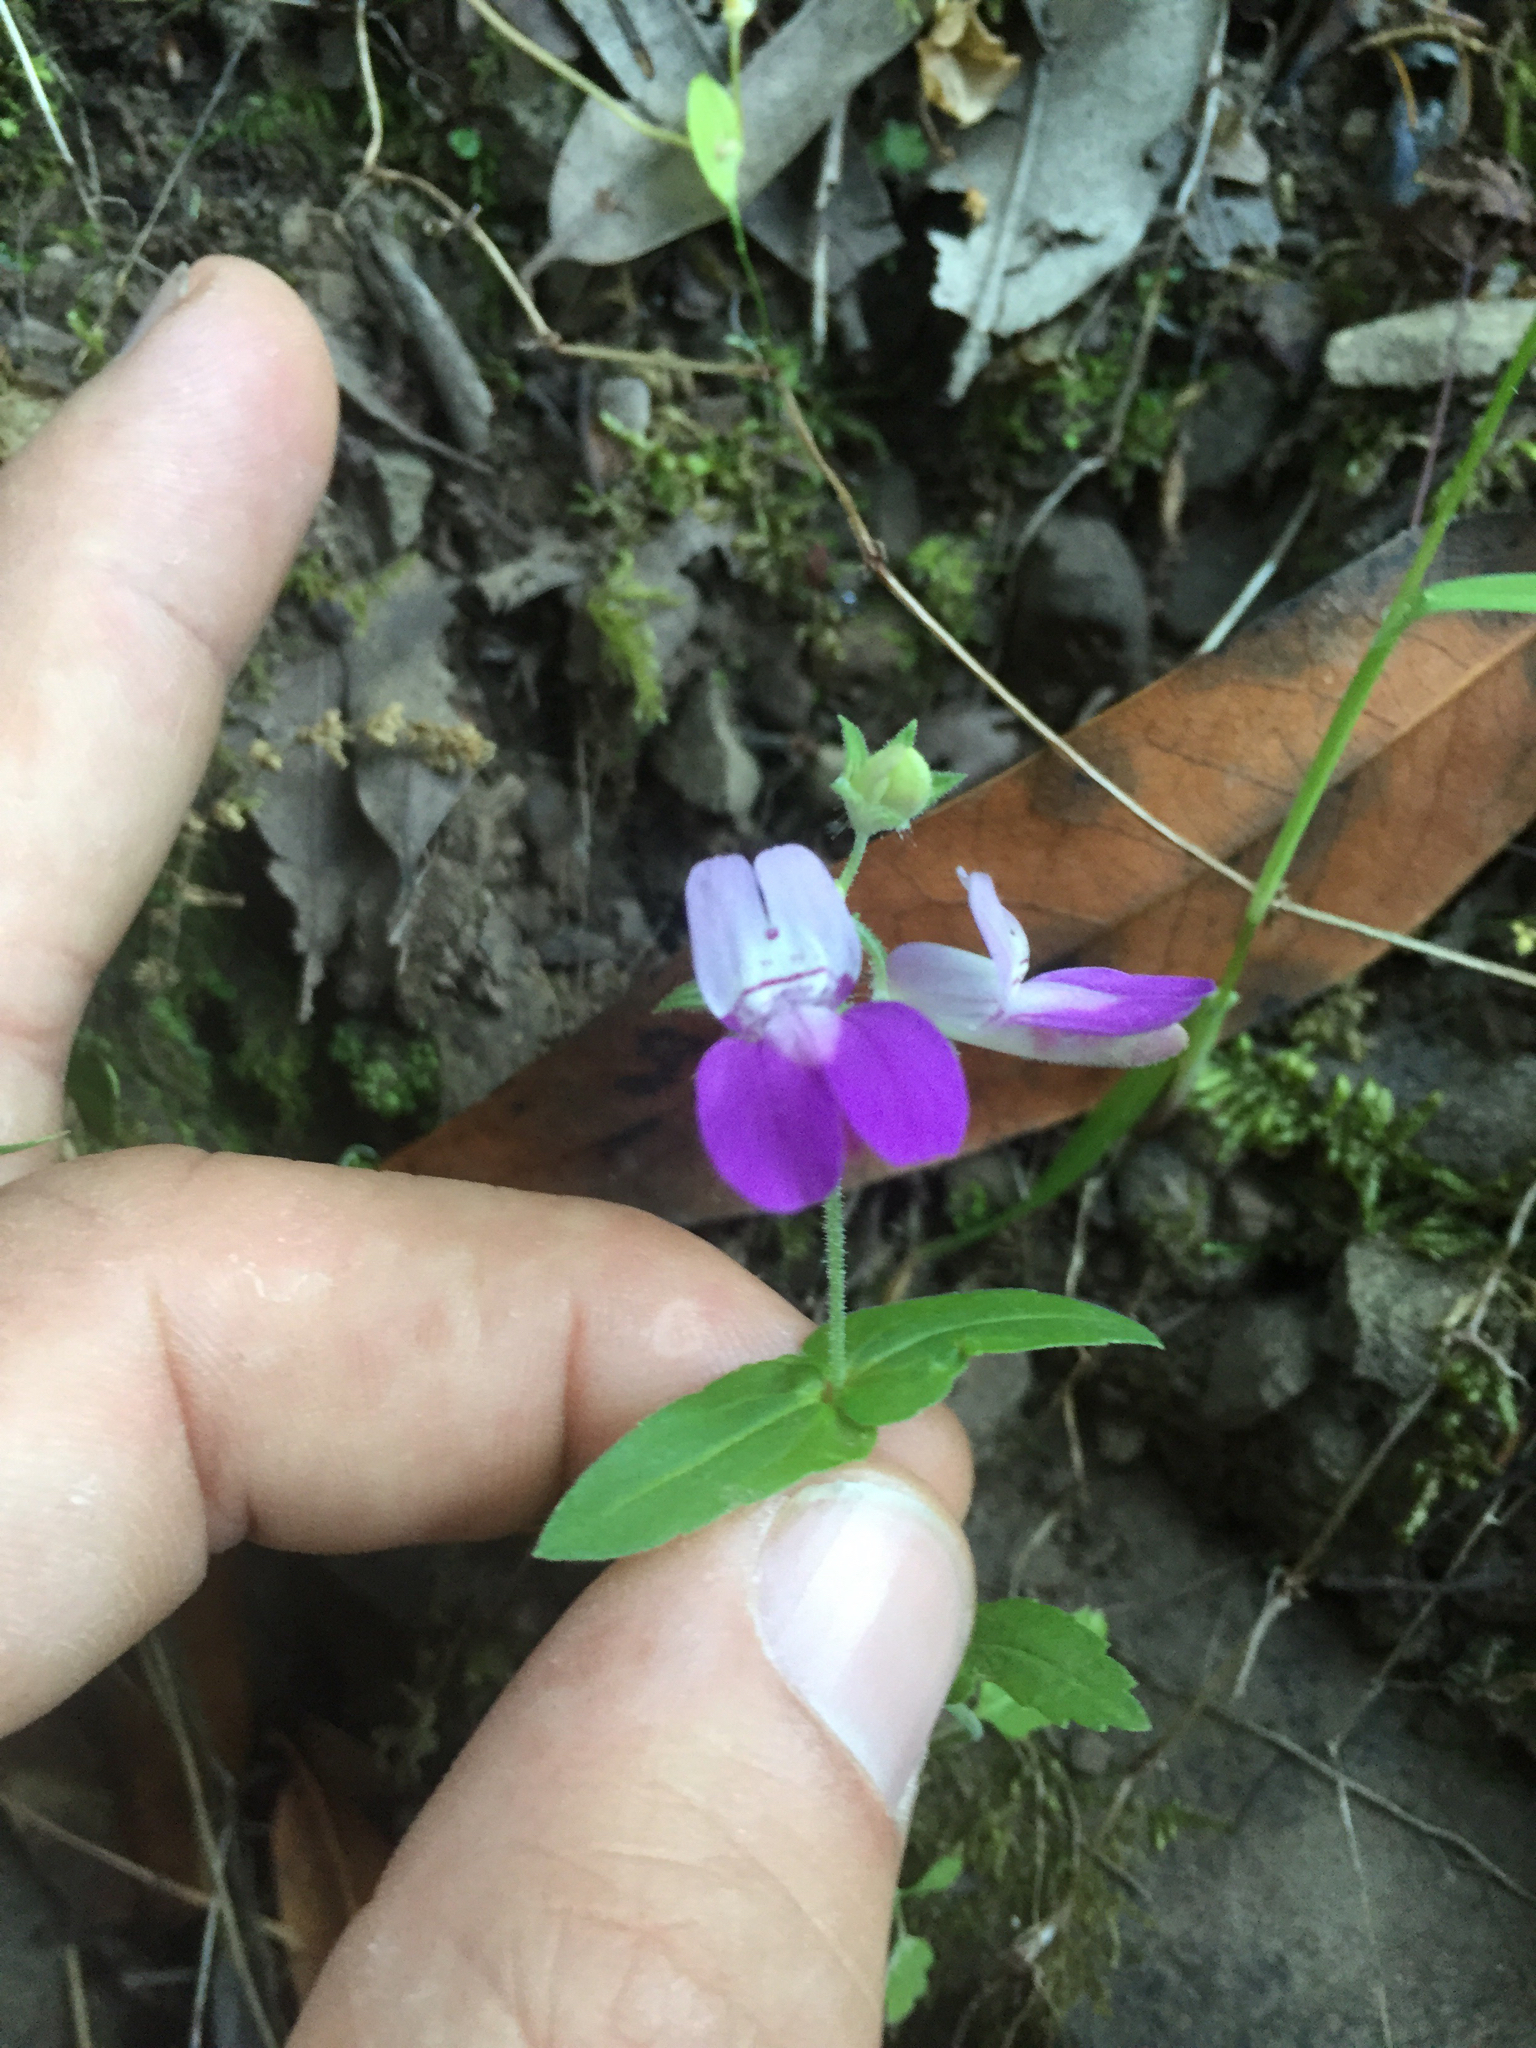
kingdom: Plantae
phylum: Tracheophyta
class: Magnoliopsida
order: Lamiales
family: Plantaginaceae
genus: Collinsia
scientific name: Collinsia heterophylla
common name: Chinese-houses
